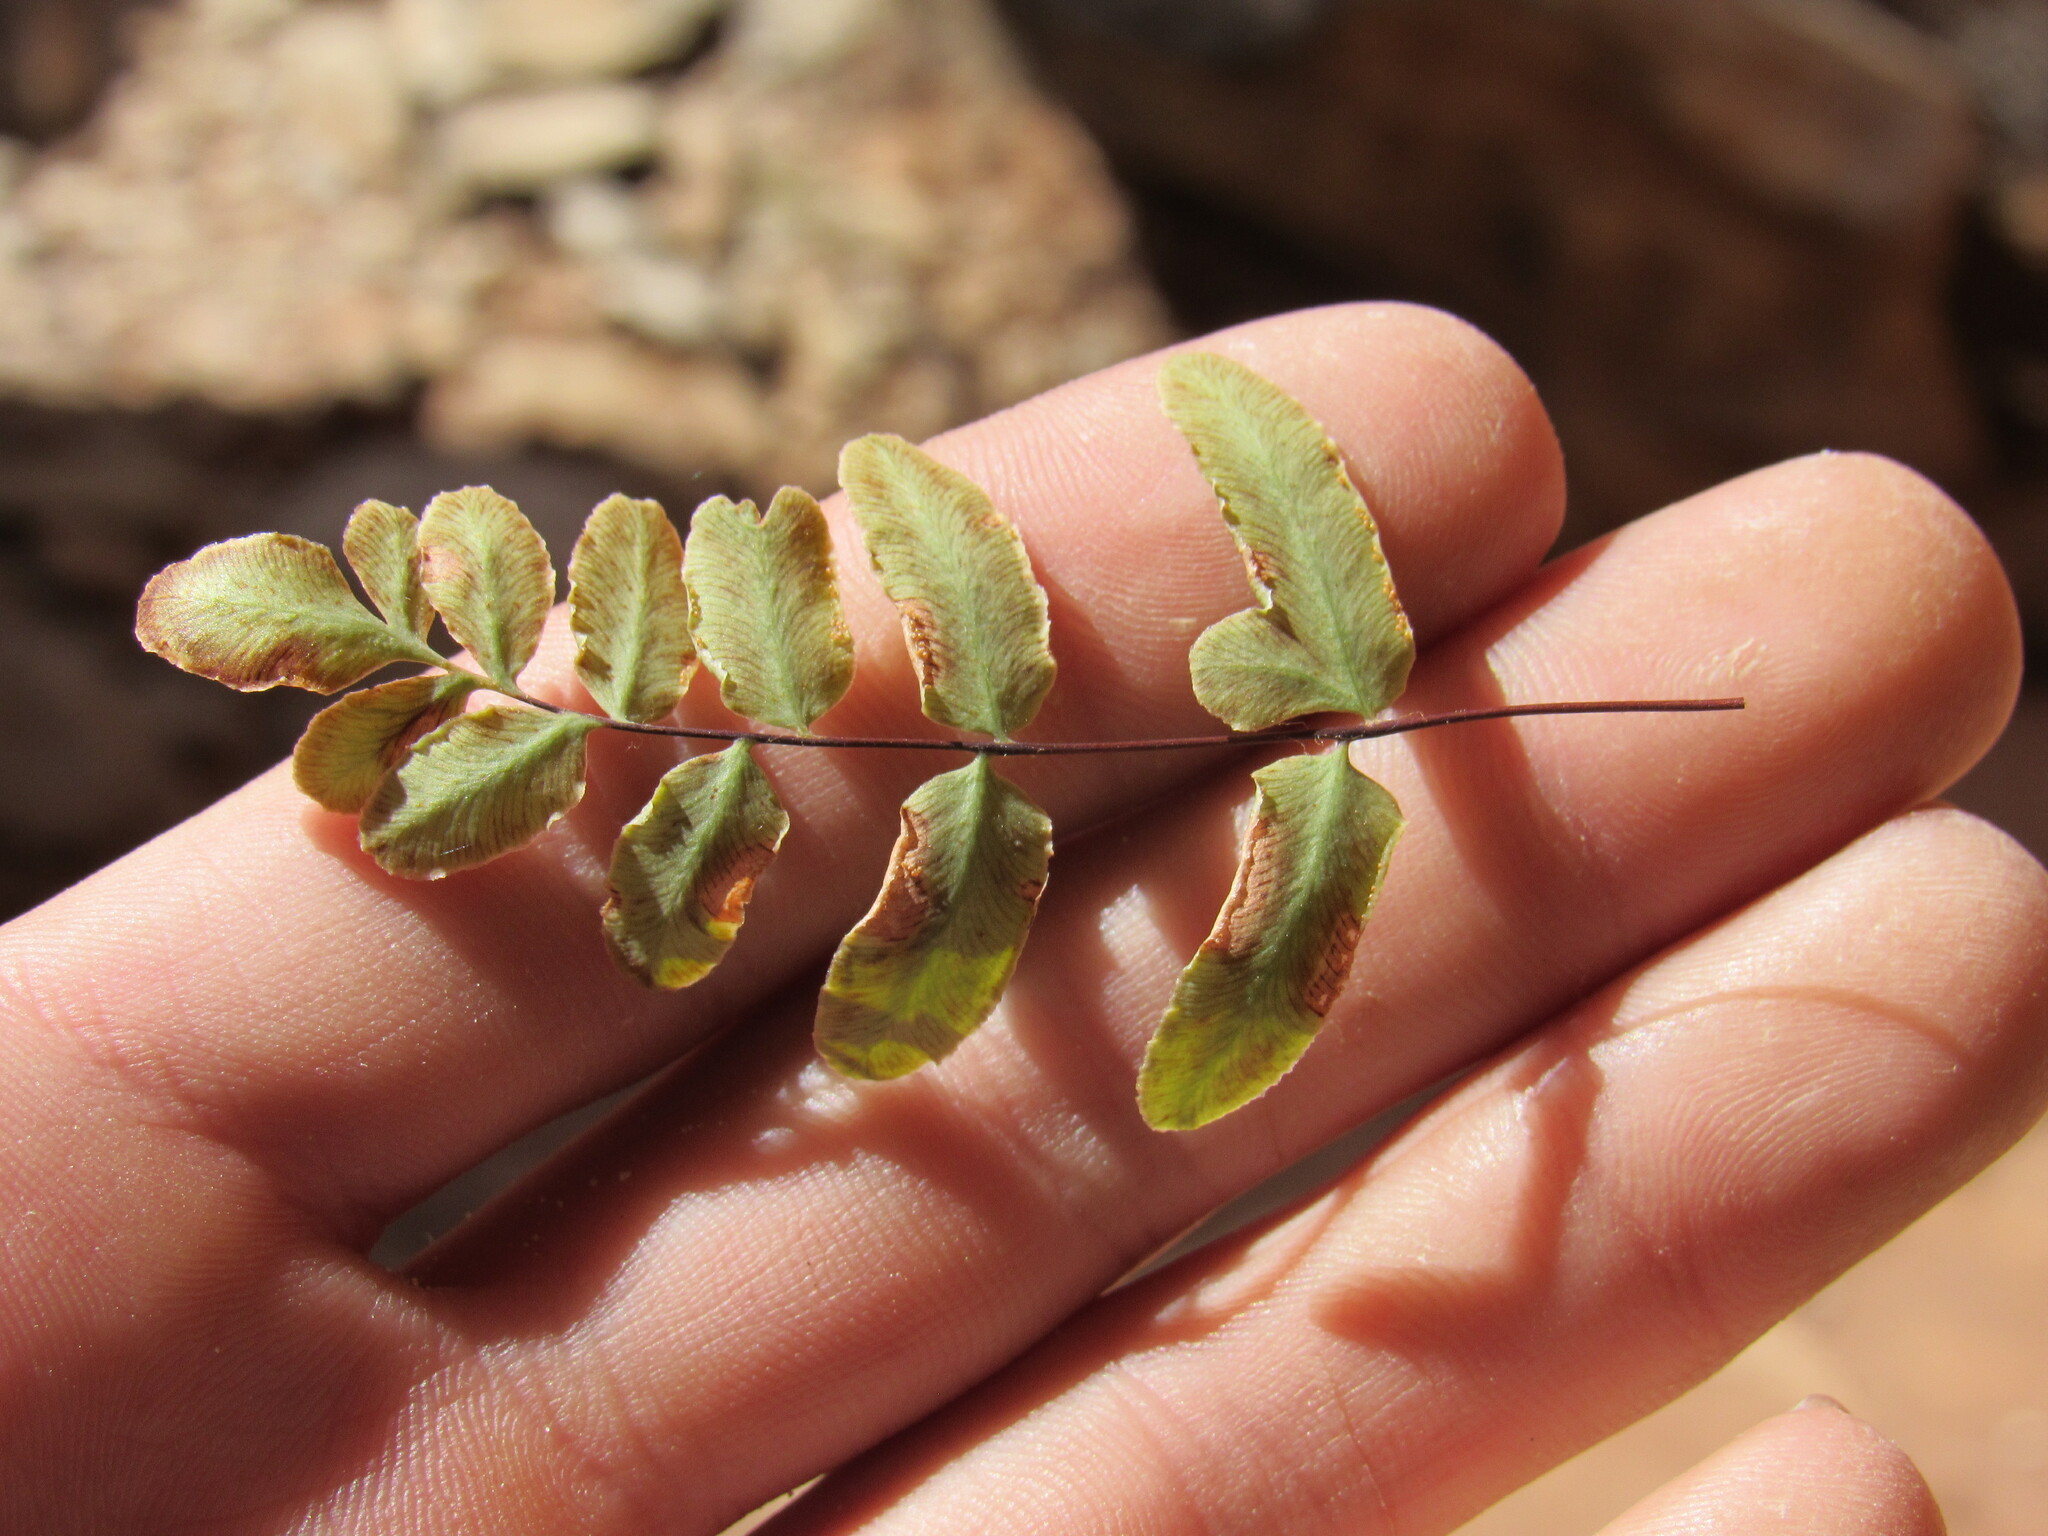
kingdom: Plantae
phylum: Tracheophyta
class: Polypodiopsida
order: Polypodiales
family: Pteridaceae
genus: Pellaea
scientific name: Pellaea glabella
